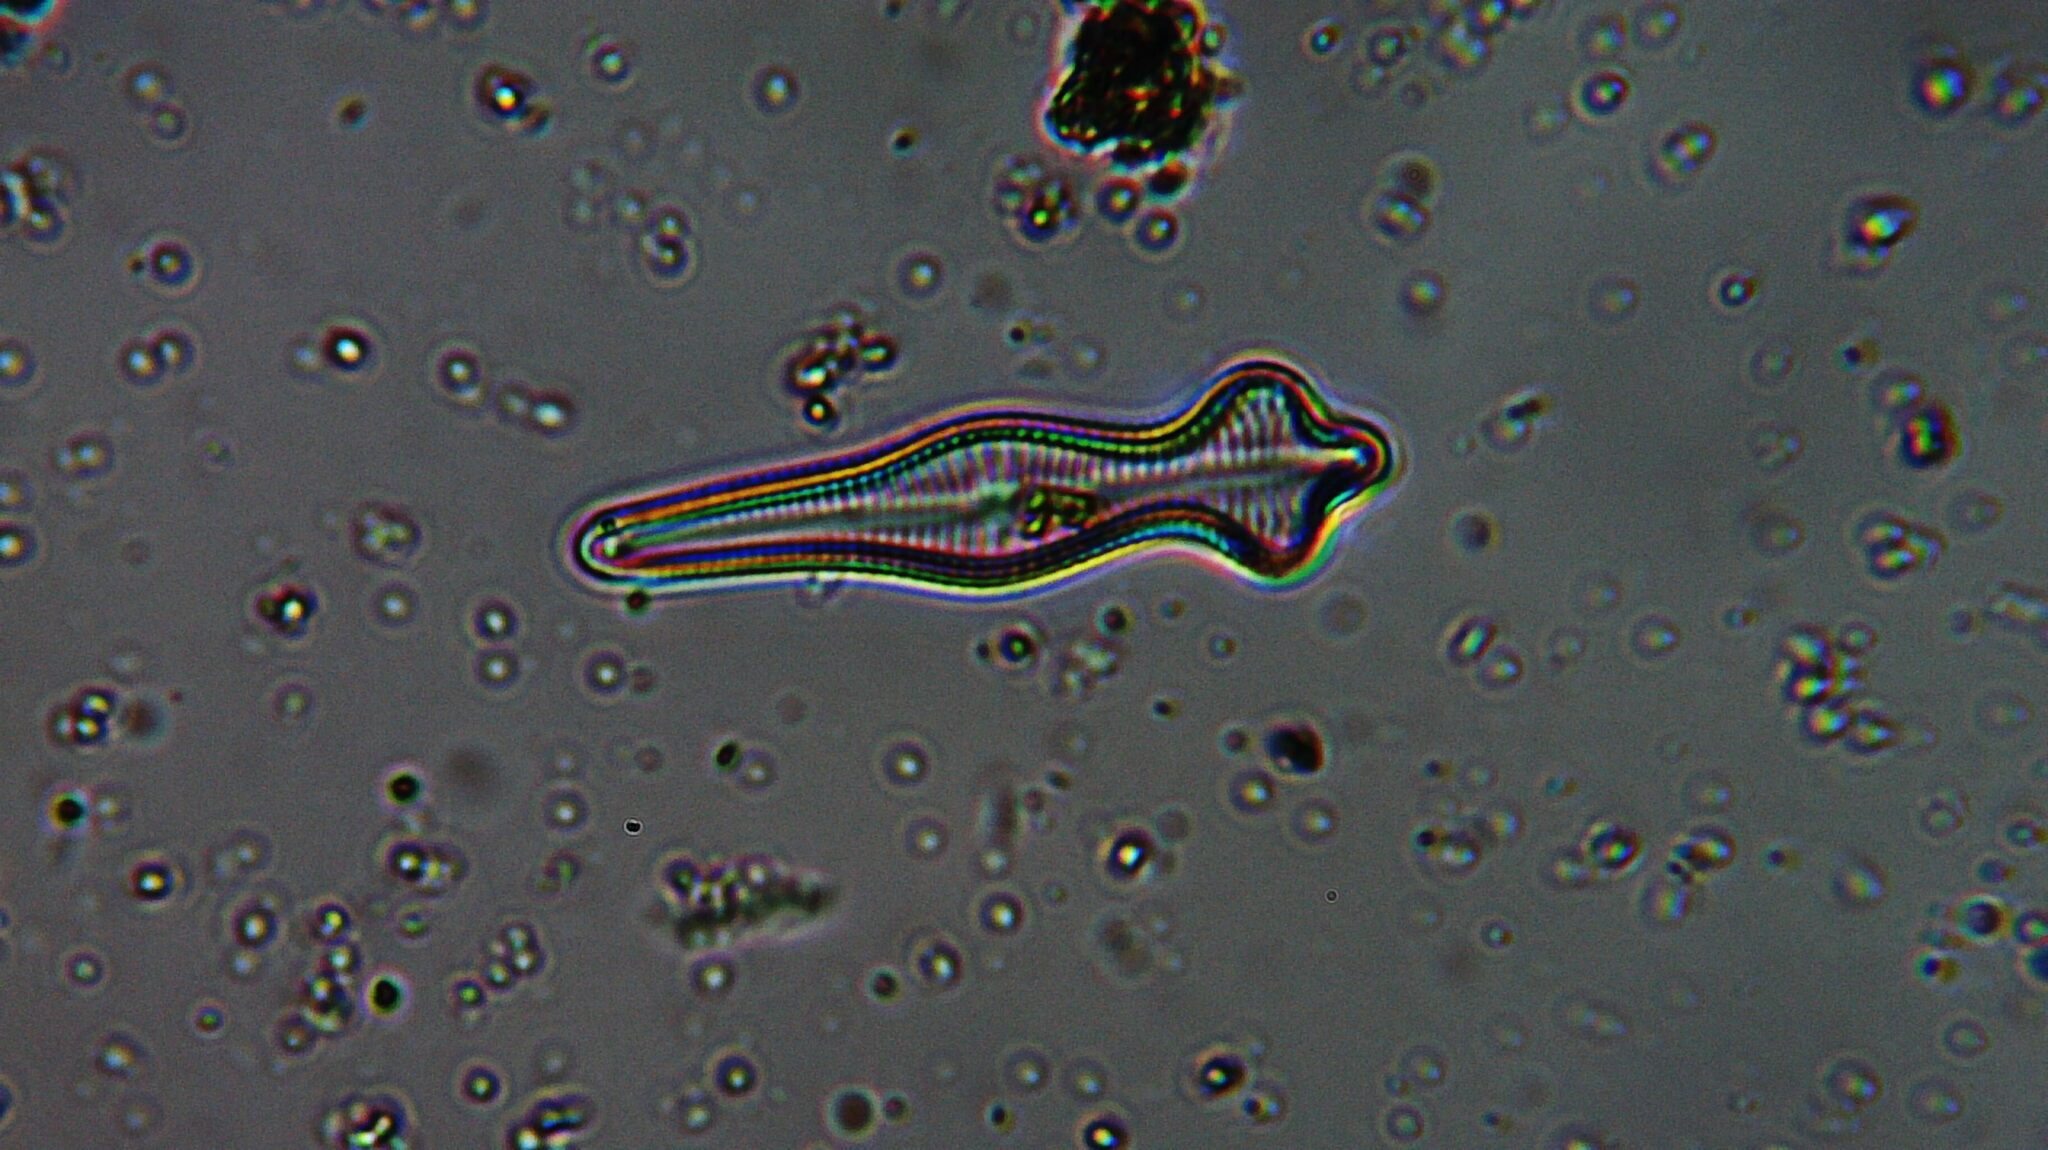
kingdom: Chromista
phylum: Ochrophyta
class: Bacillariophyceae
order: Cymbellales
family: Gomphonemataceae
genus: Gomphonema
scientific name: Gomphonema acuminatum
